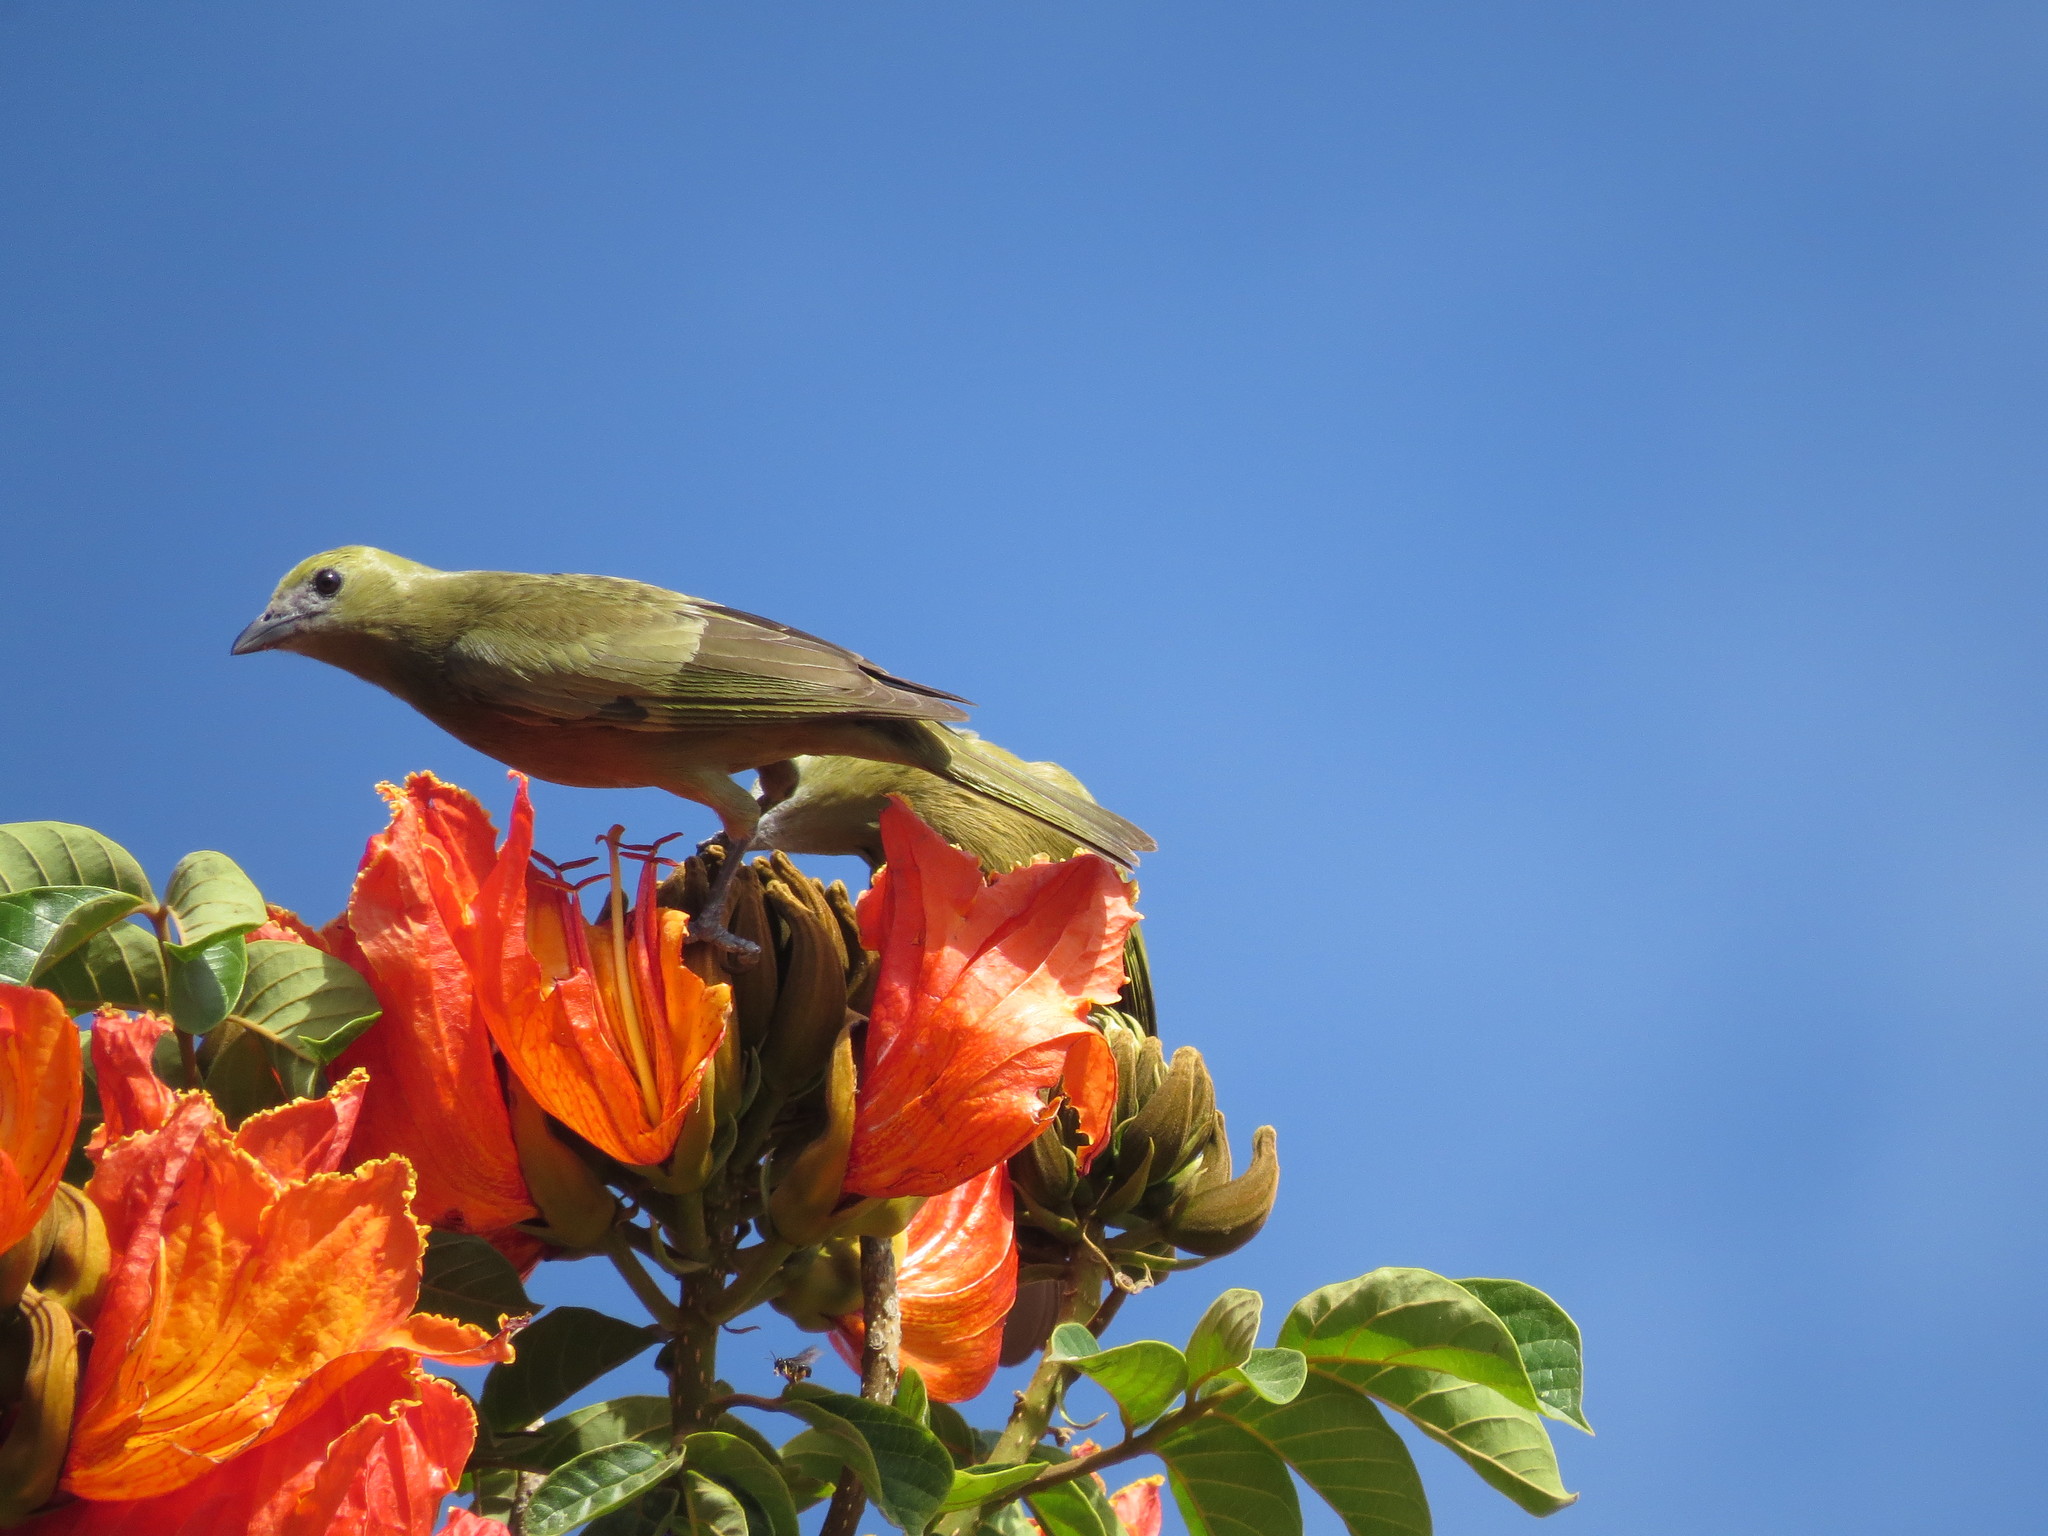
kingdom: Animalia
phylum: Chordata
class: Aves
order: Passeriformes
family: Thraupidae
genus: Thraupis
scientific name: Thraupis palmarum
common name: Palm tanager
